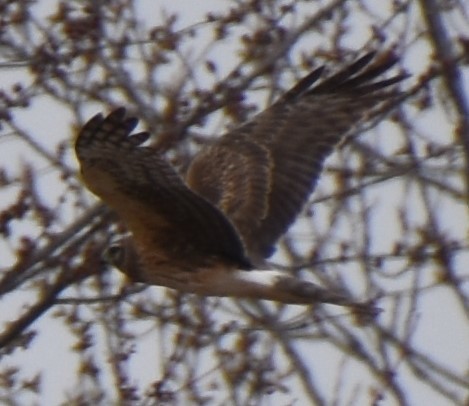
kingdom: Animalia
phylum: Chordata
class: Aves
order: Accipitriformes
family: Accipitridae
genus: Circus
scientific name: Circus cyaneus
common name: Hen harrier
